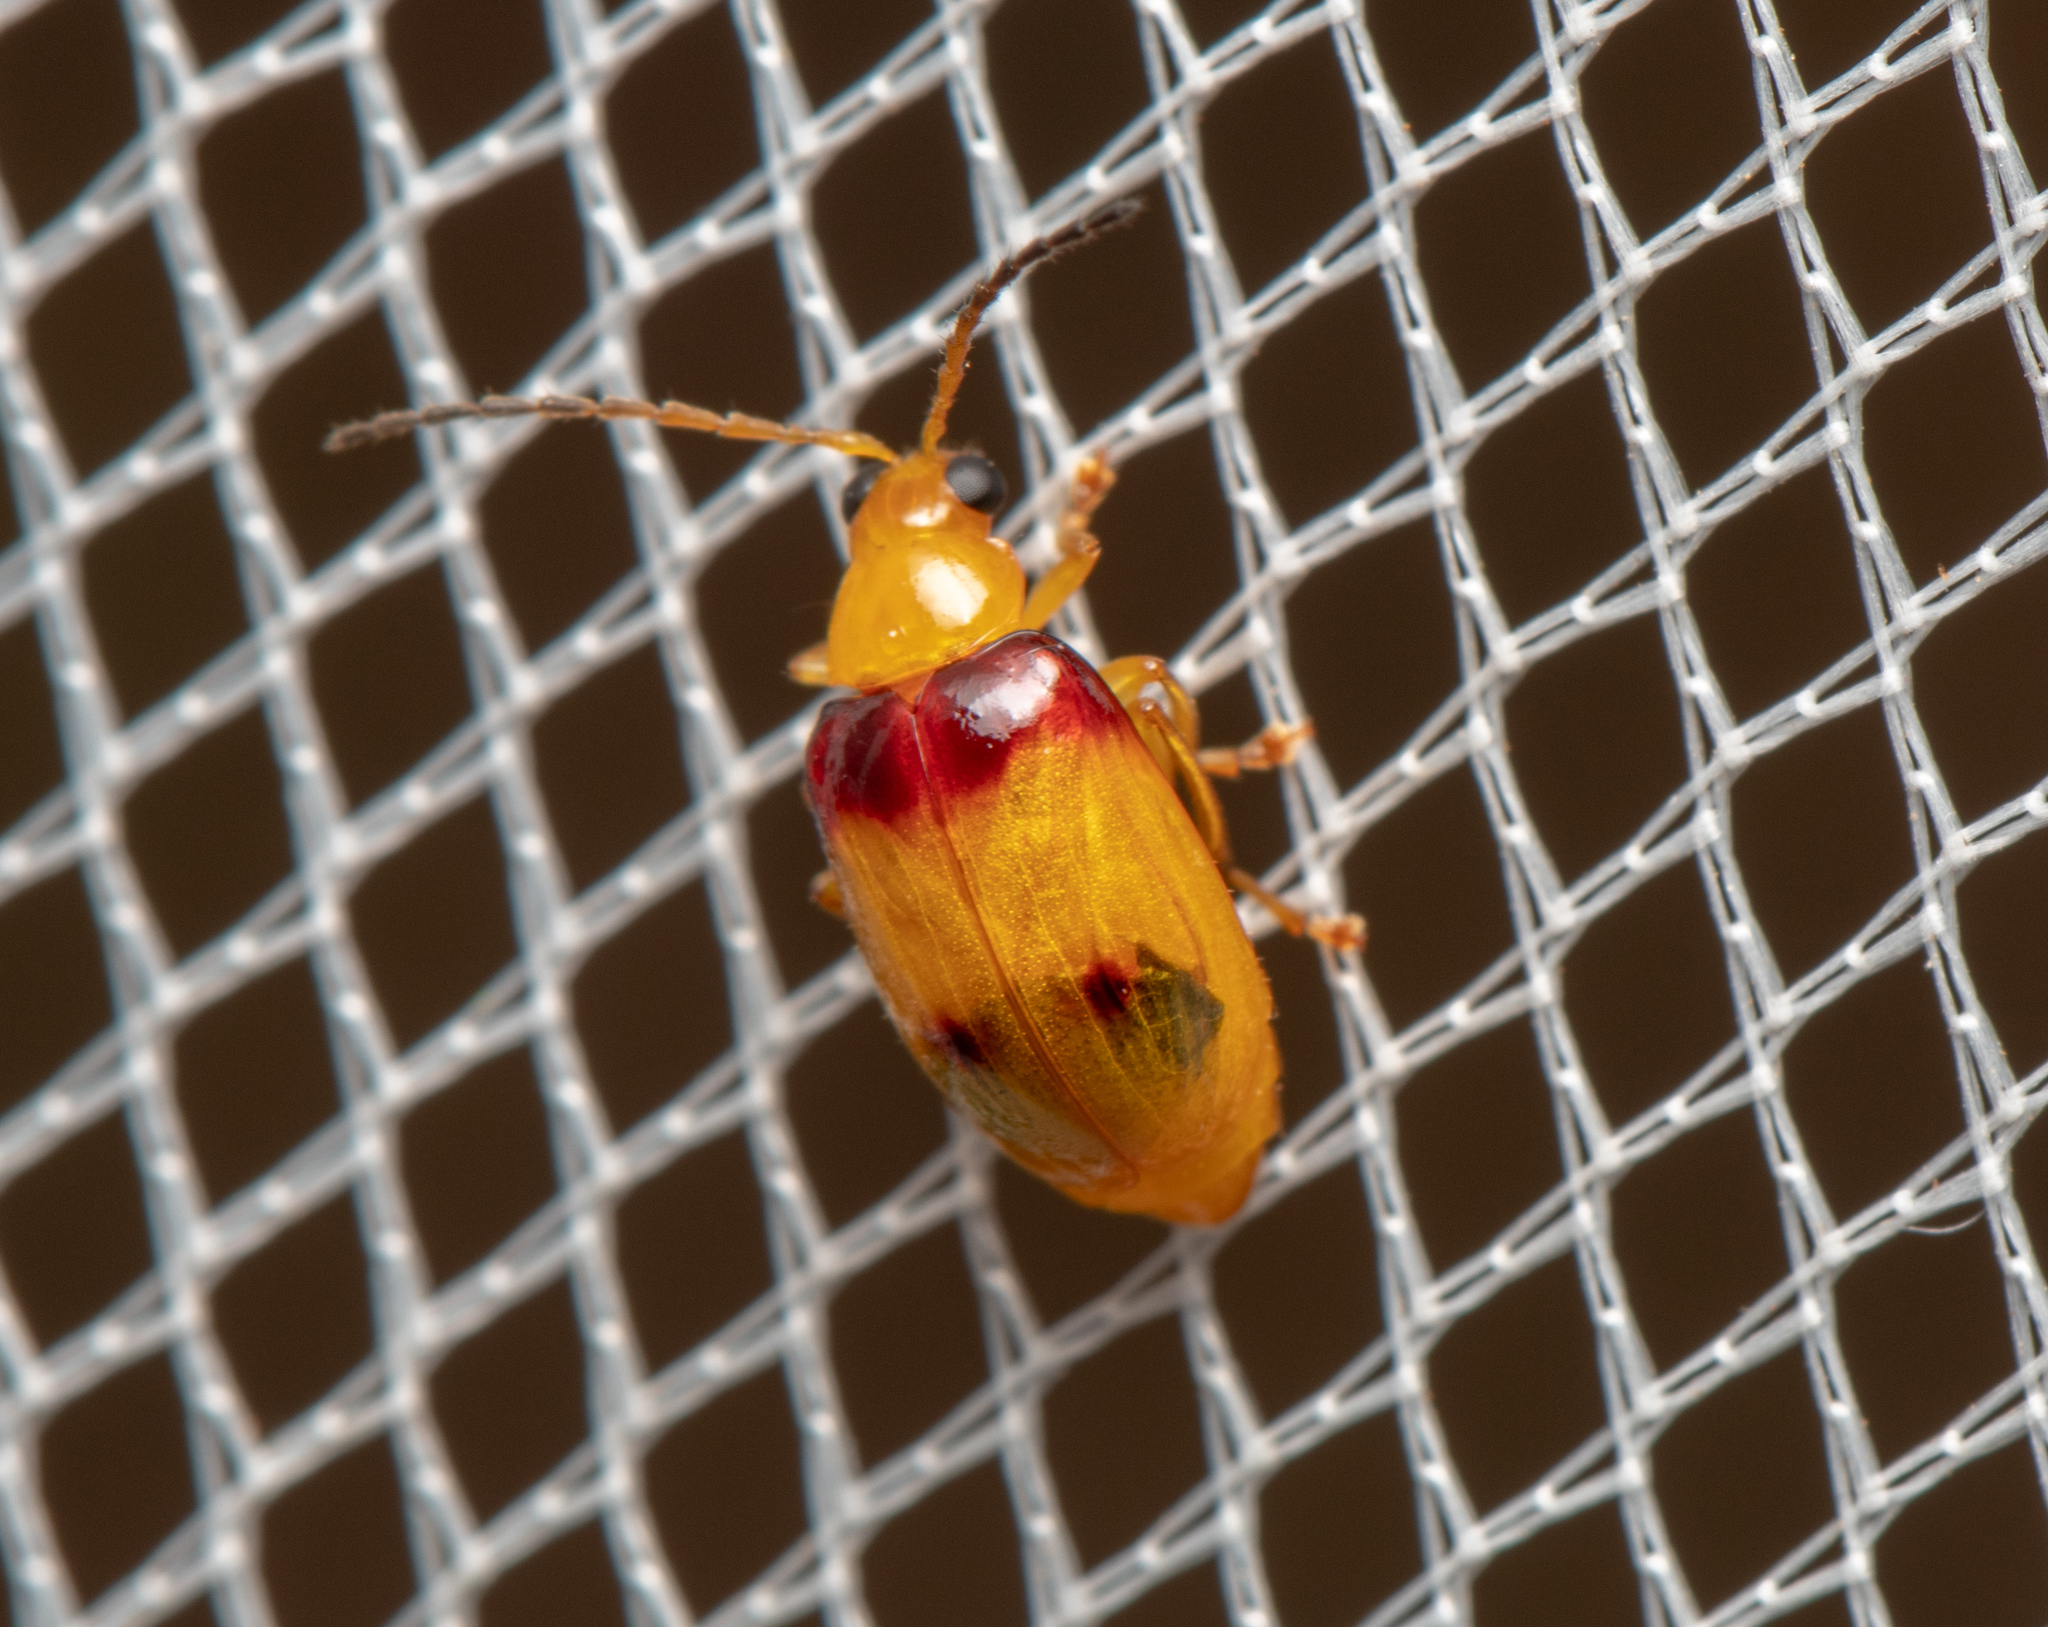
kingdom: Animalia
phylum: Arthropoda
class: Insecta
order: Coleoptera
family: Chrysomelidae
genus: Monolepta
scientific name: Monolepta
